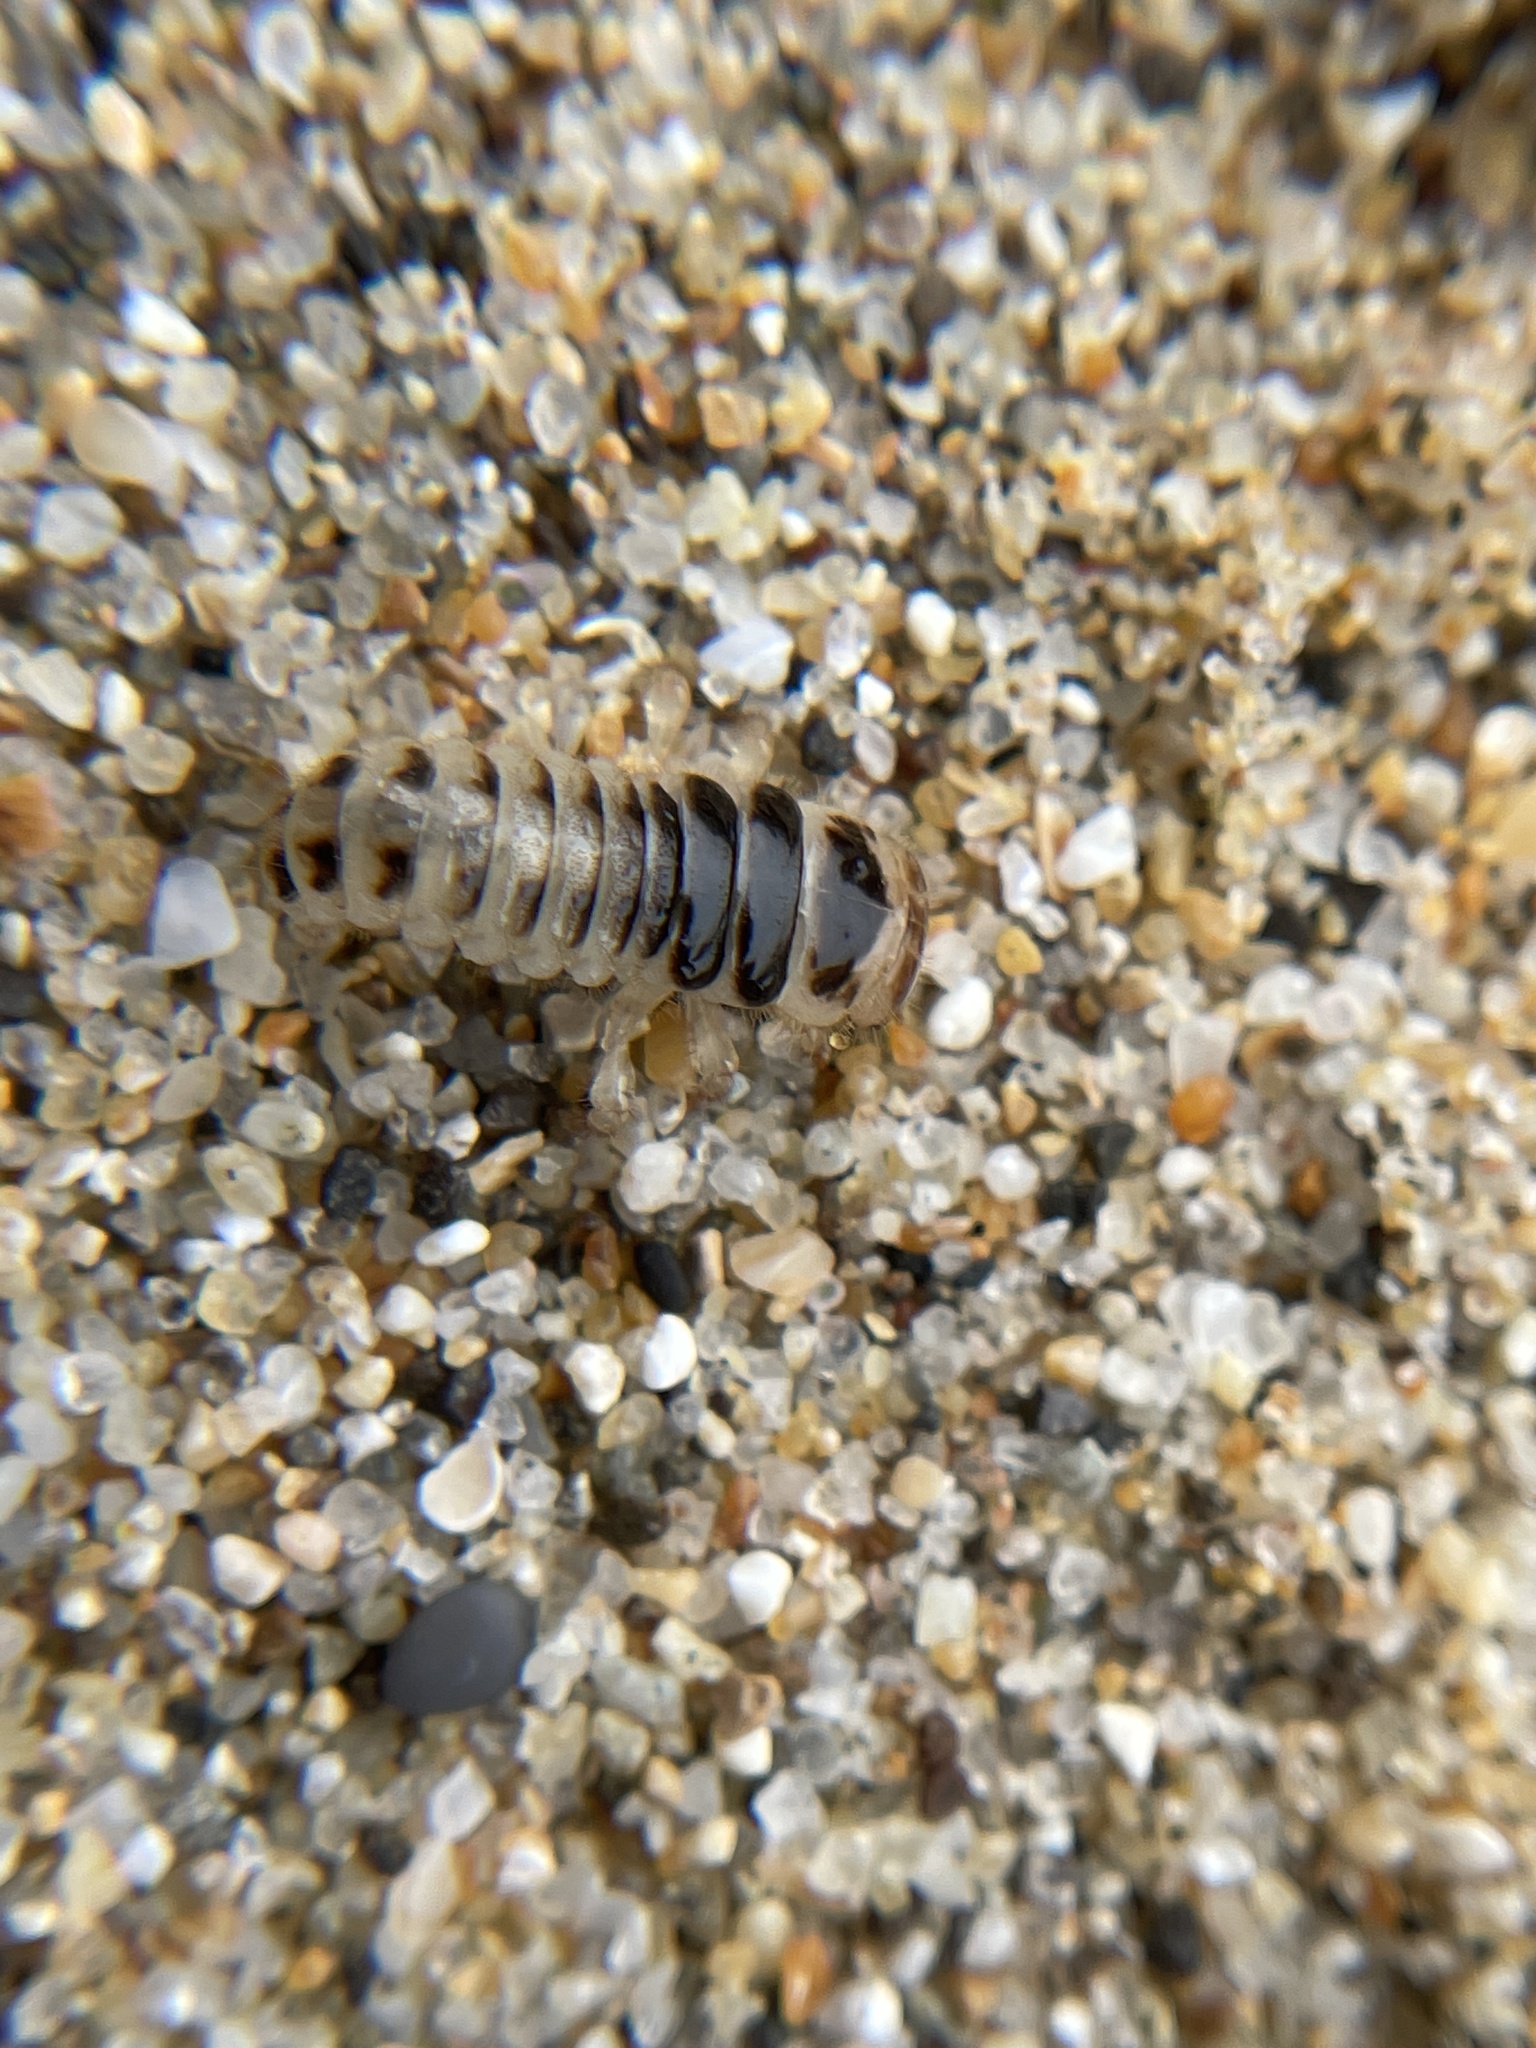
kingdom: Animalia
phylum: Arthropoda
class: Insecta
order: Coleoptera
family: Staphylinidae
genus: Thinopinus
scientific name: Thinopinus pictus
